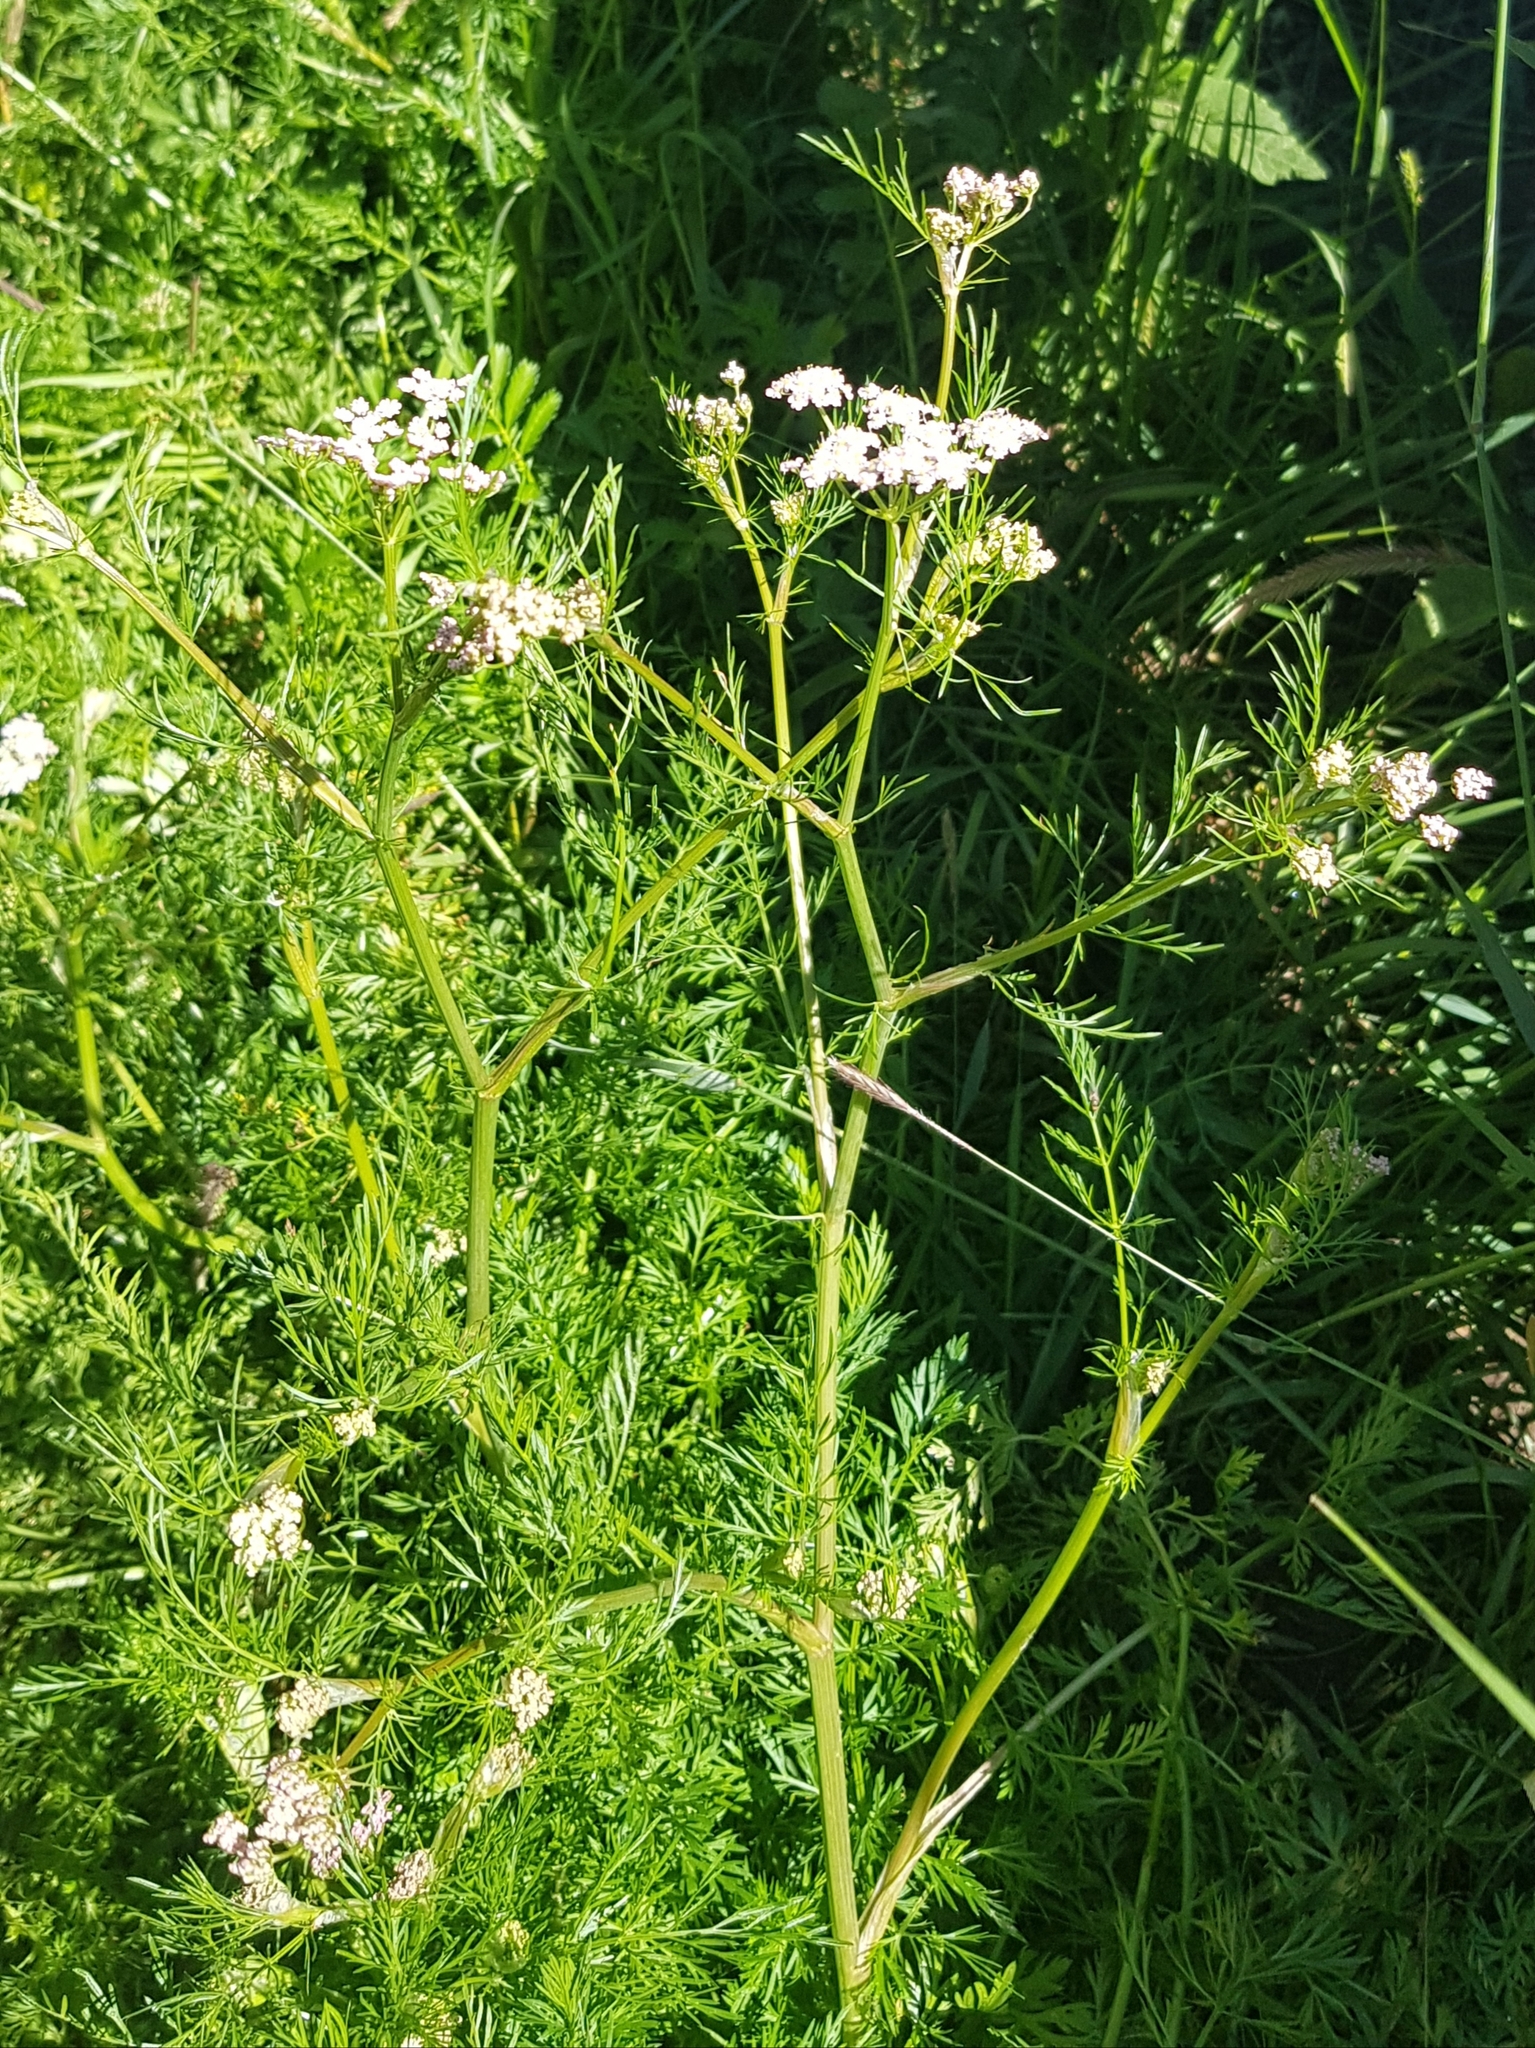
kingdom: Plantae
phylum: Tracheophyta
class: Magnoliopsida
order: Apiales
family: Apiaceae
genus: Carum
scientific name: Carum carvi
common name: Caraway
